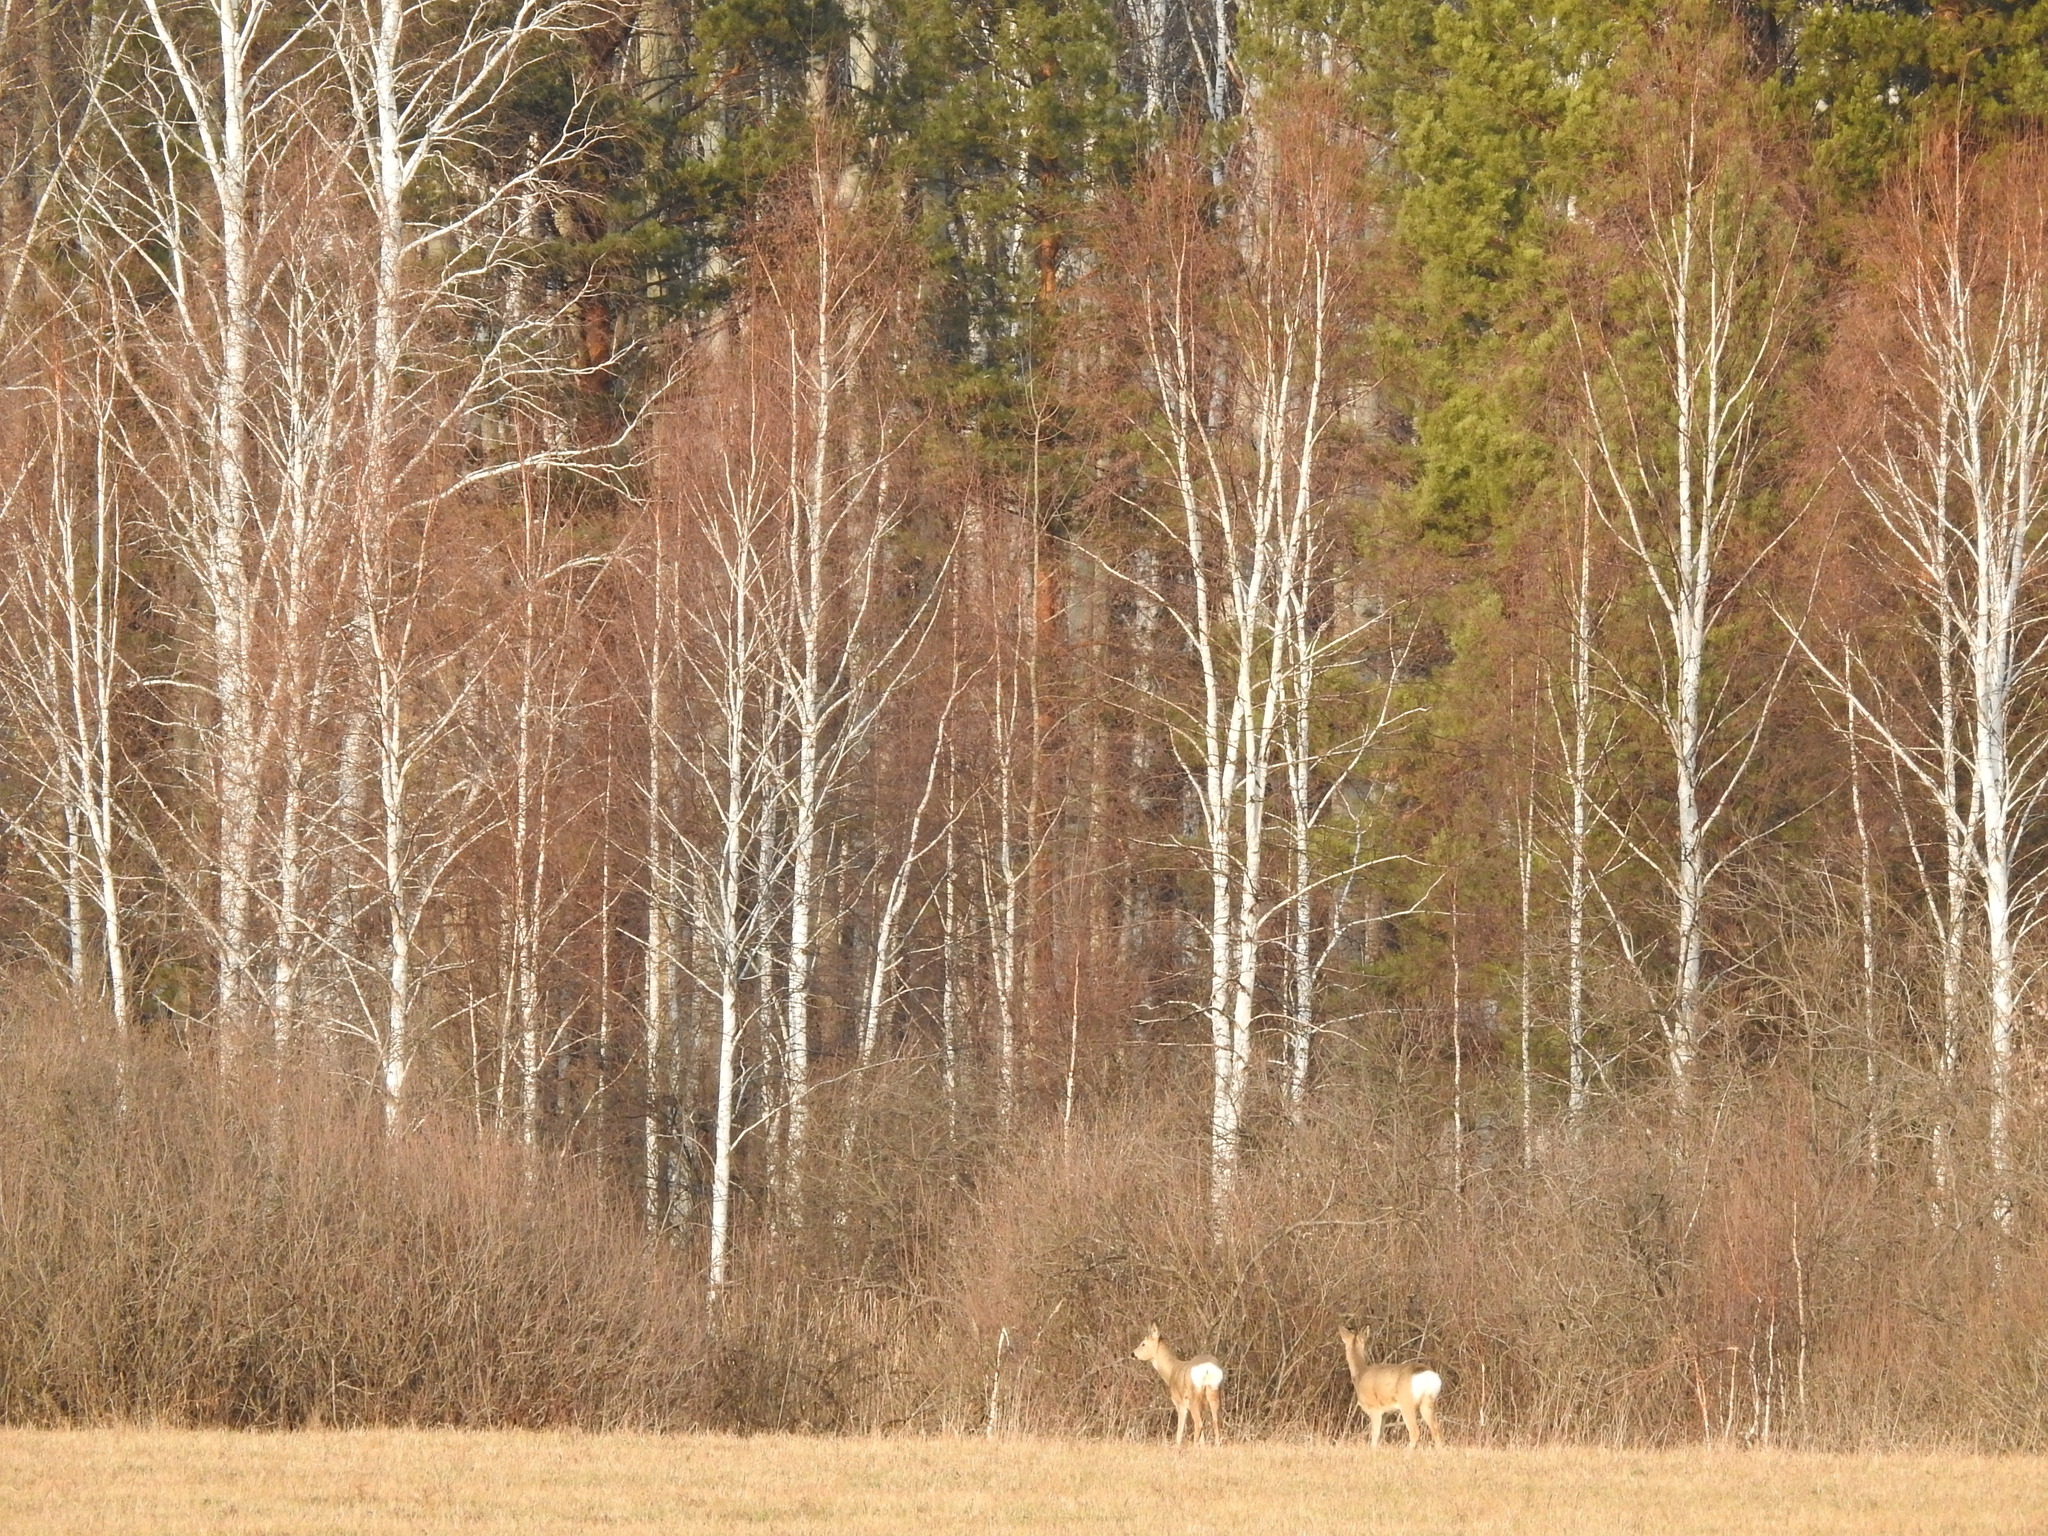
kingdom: Animalia
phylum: Chordata
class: Mammalia
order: Artiodactyla
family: Cervidae
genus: Capreolus
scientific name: Capreolus pygargus
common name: Siberian roe
